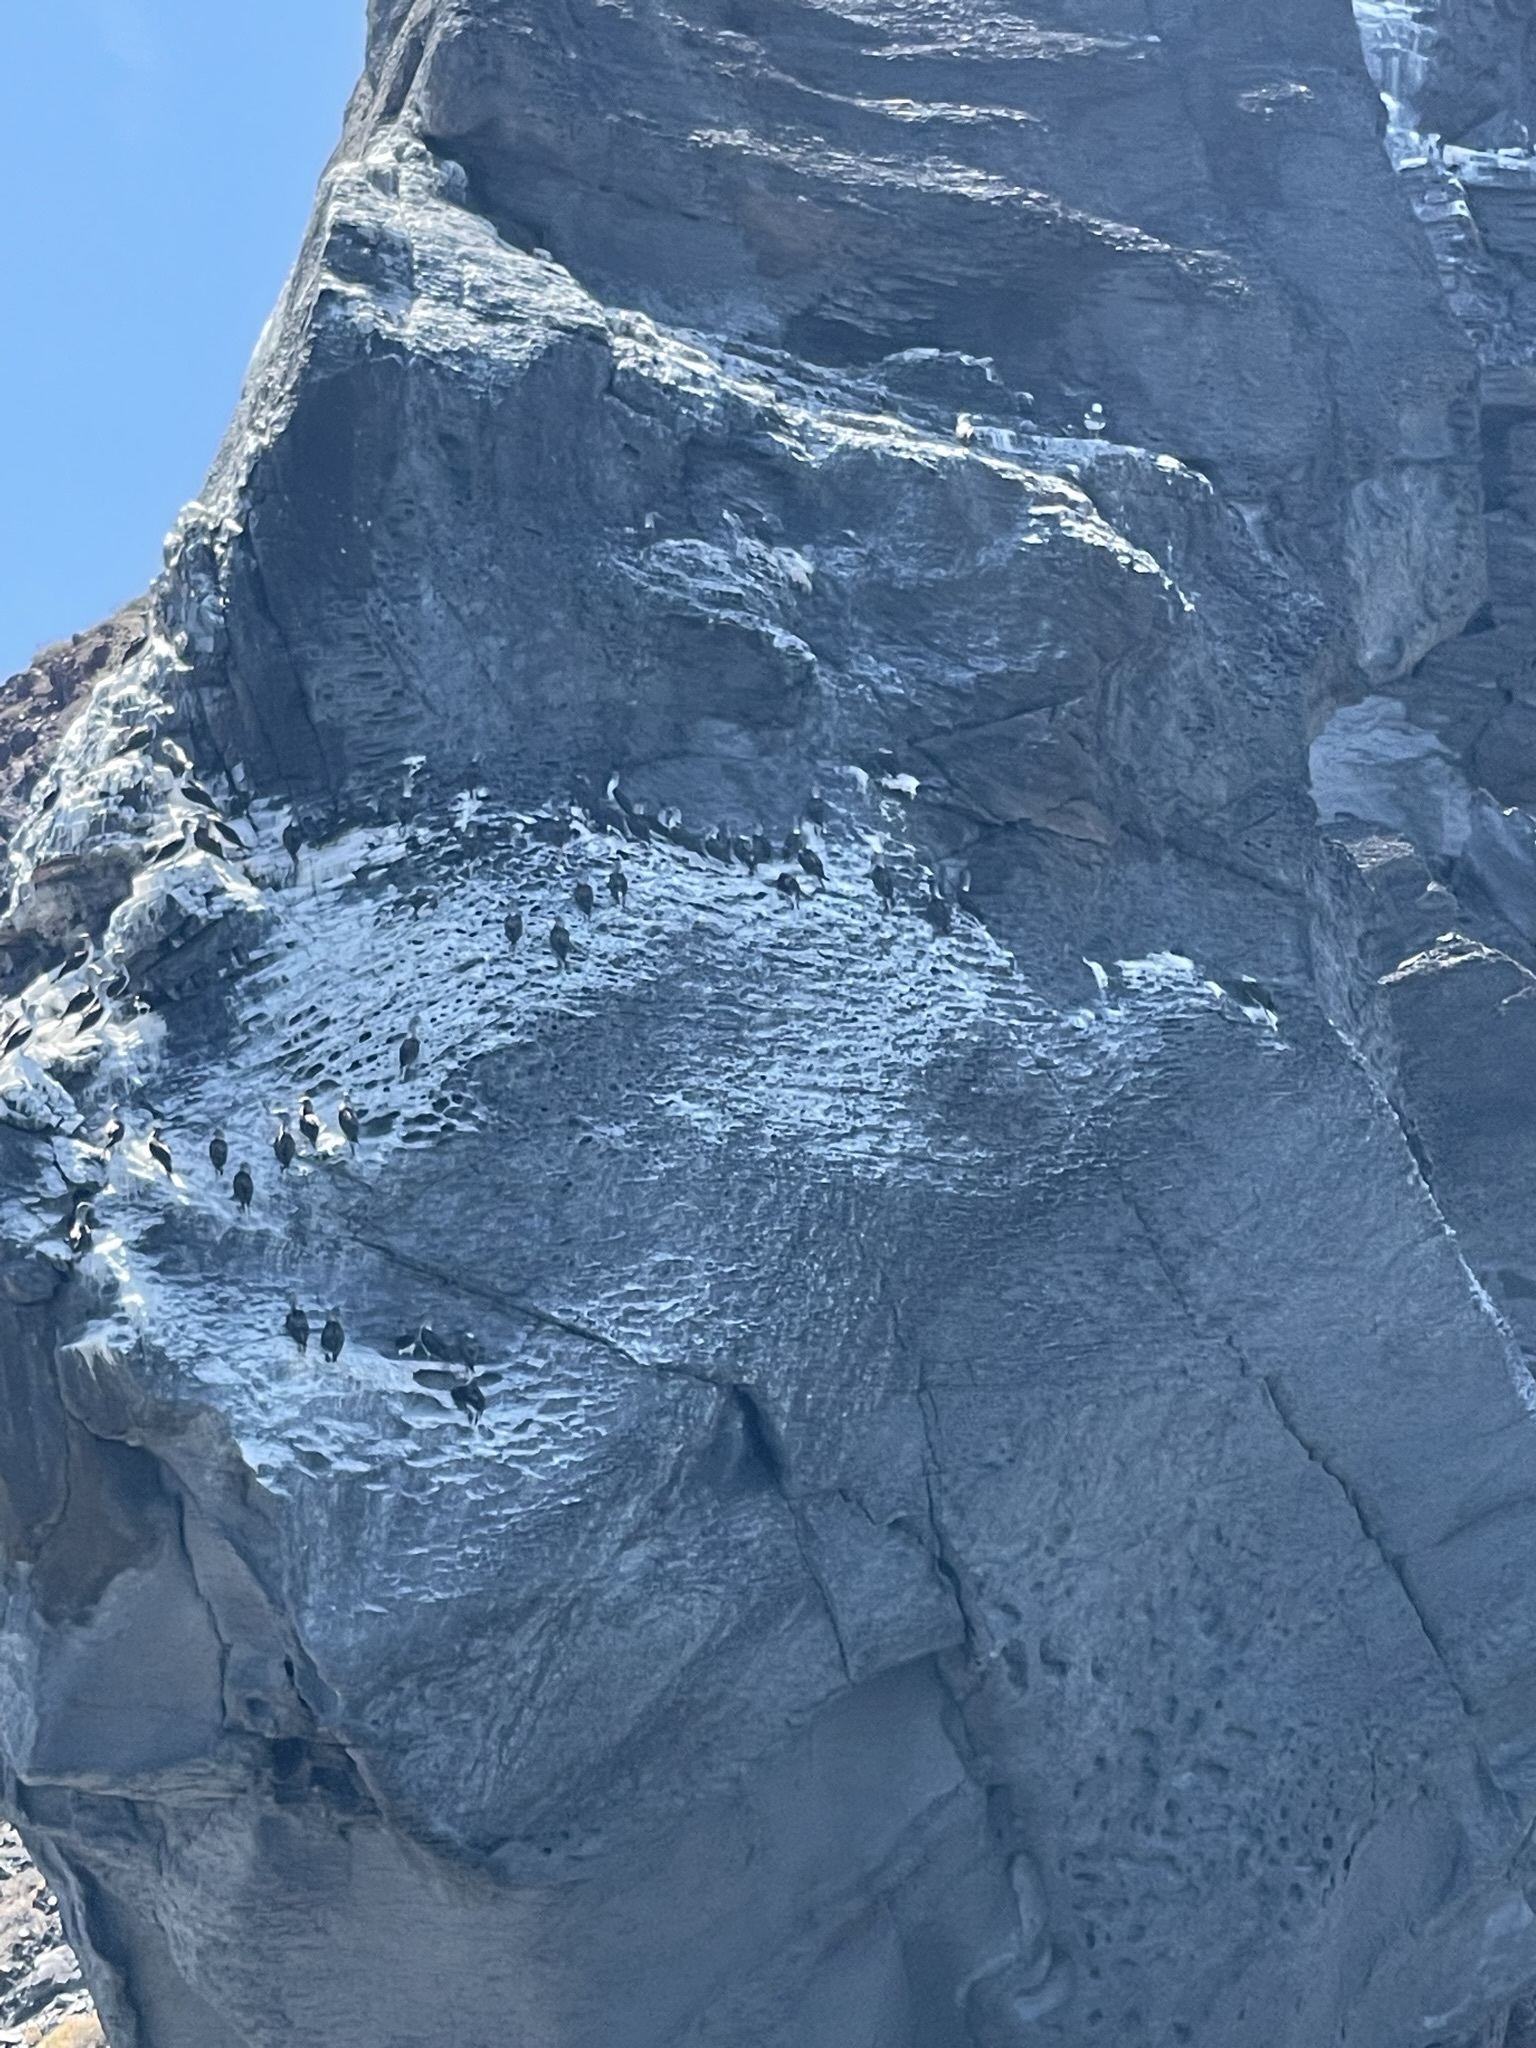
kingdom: Animalia
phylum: Chordata
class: Aves
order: Suliformes
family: Sulidae
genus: Sula
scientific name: Sula nebouxii
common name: Blue-footed booby
